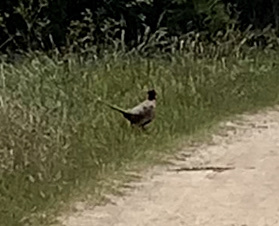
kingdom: Animalia
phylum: Chordata
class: Aves
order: Galliformes
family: Phasianidae
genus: Phasianus
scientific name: Phasianus colchicus
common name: Common pheasant
